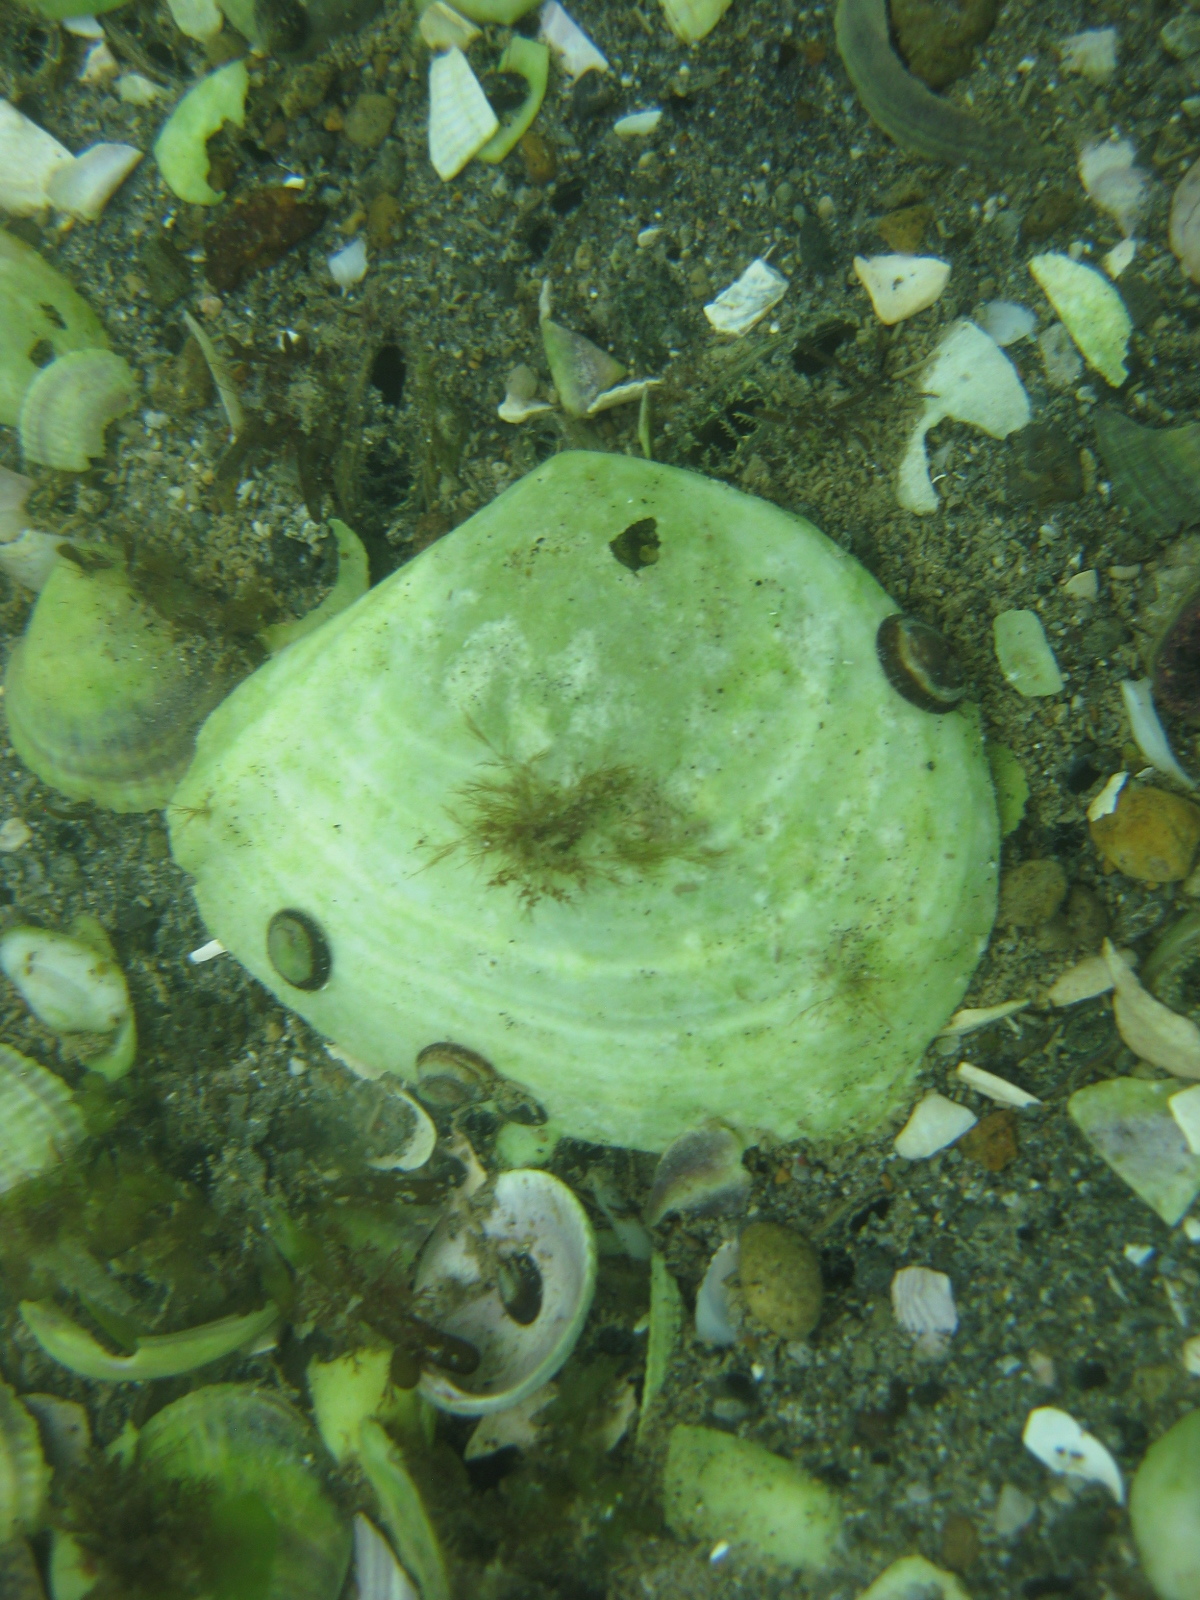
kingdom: Animalia
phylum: Mollusca
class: Bivalvia
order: Cardiida
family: Tellinidae
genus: Macomona
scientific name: Macomona liliana
